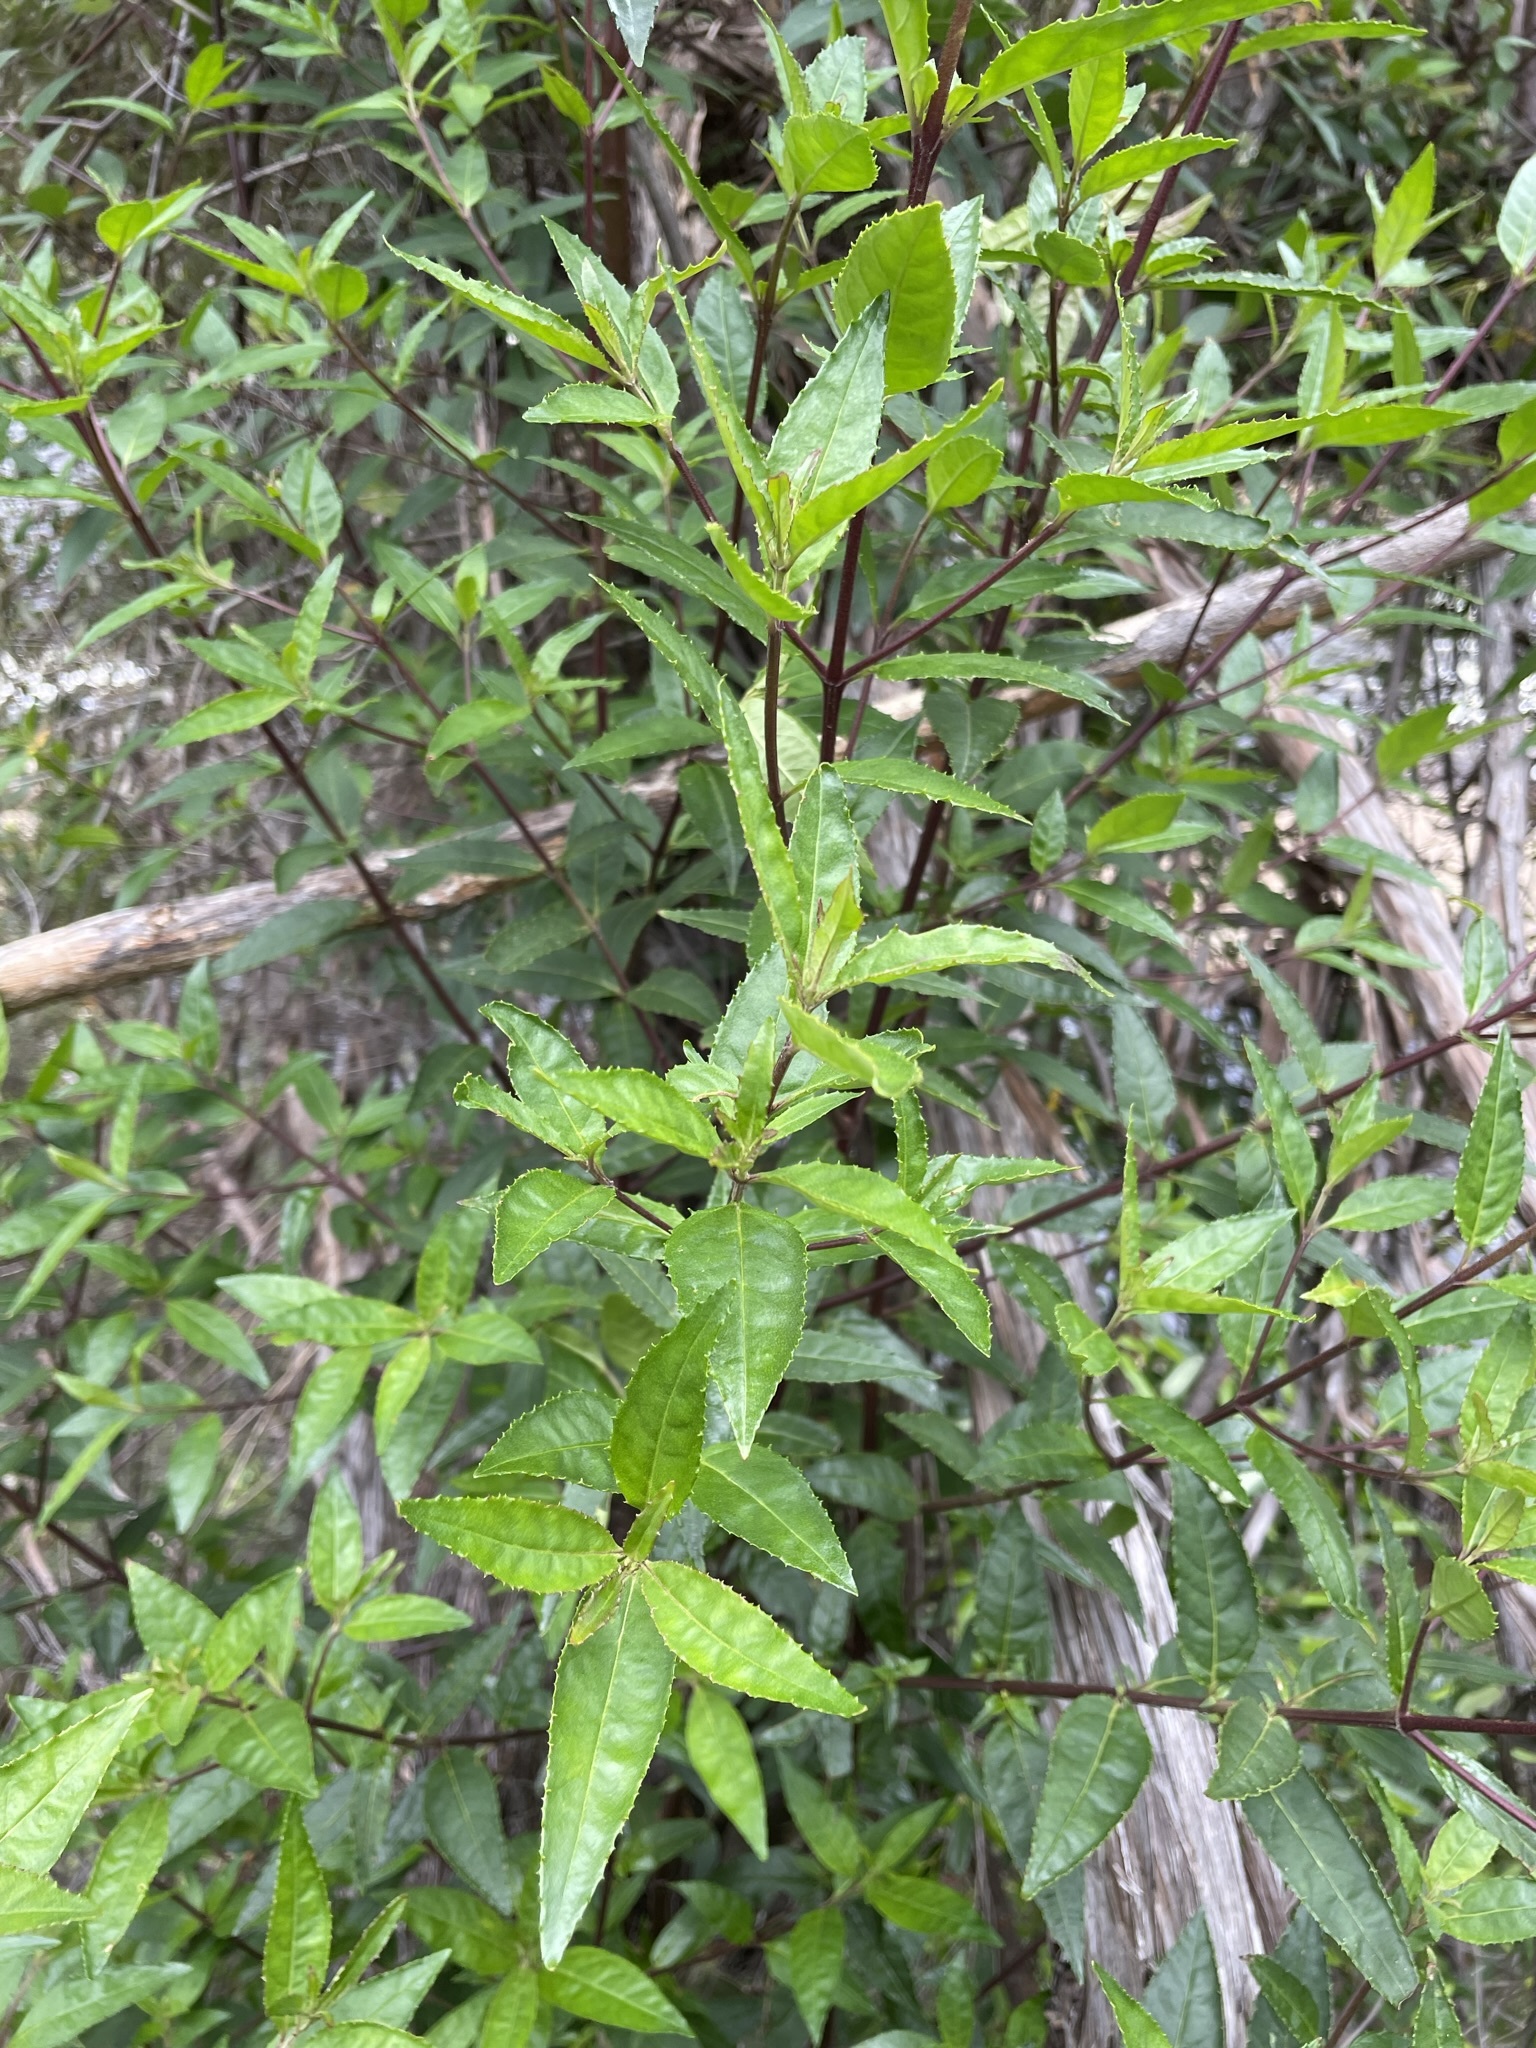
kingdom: Plantae
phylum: Tracheophyta
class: Magnoliopsida
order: Lamiales
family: Lamiaceae
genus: Prostanthera
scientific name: Prostanthera lasianthos
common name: Mountain-lilac
